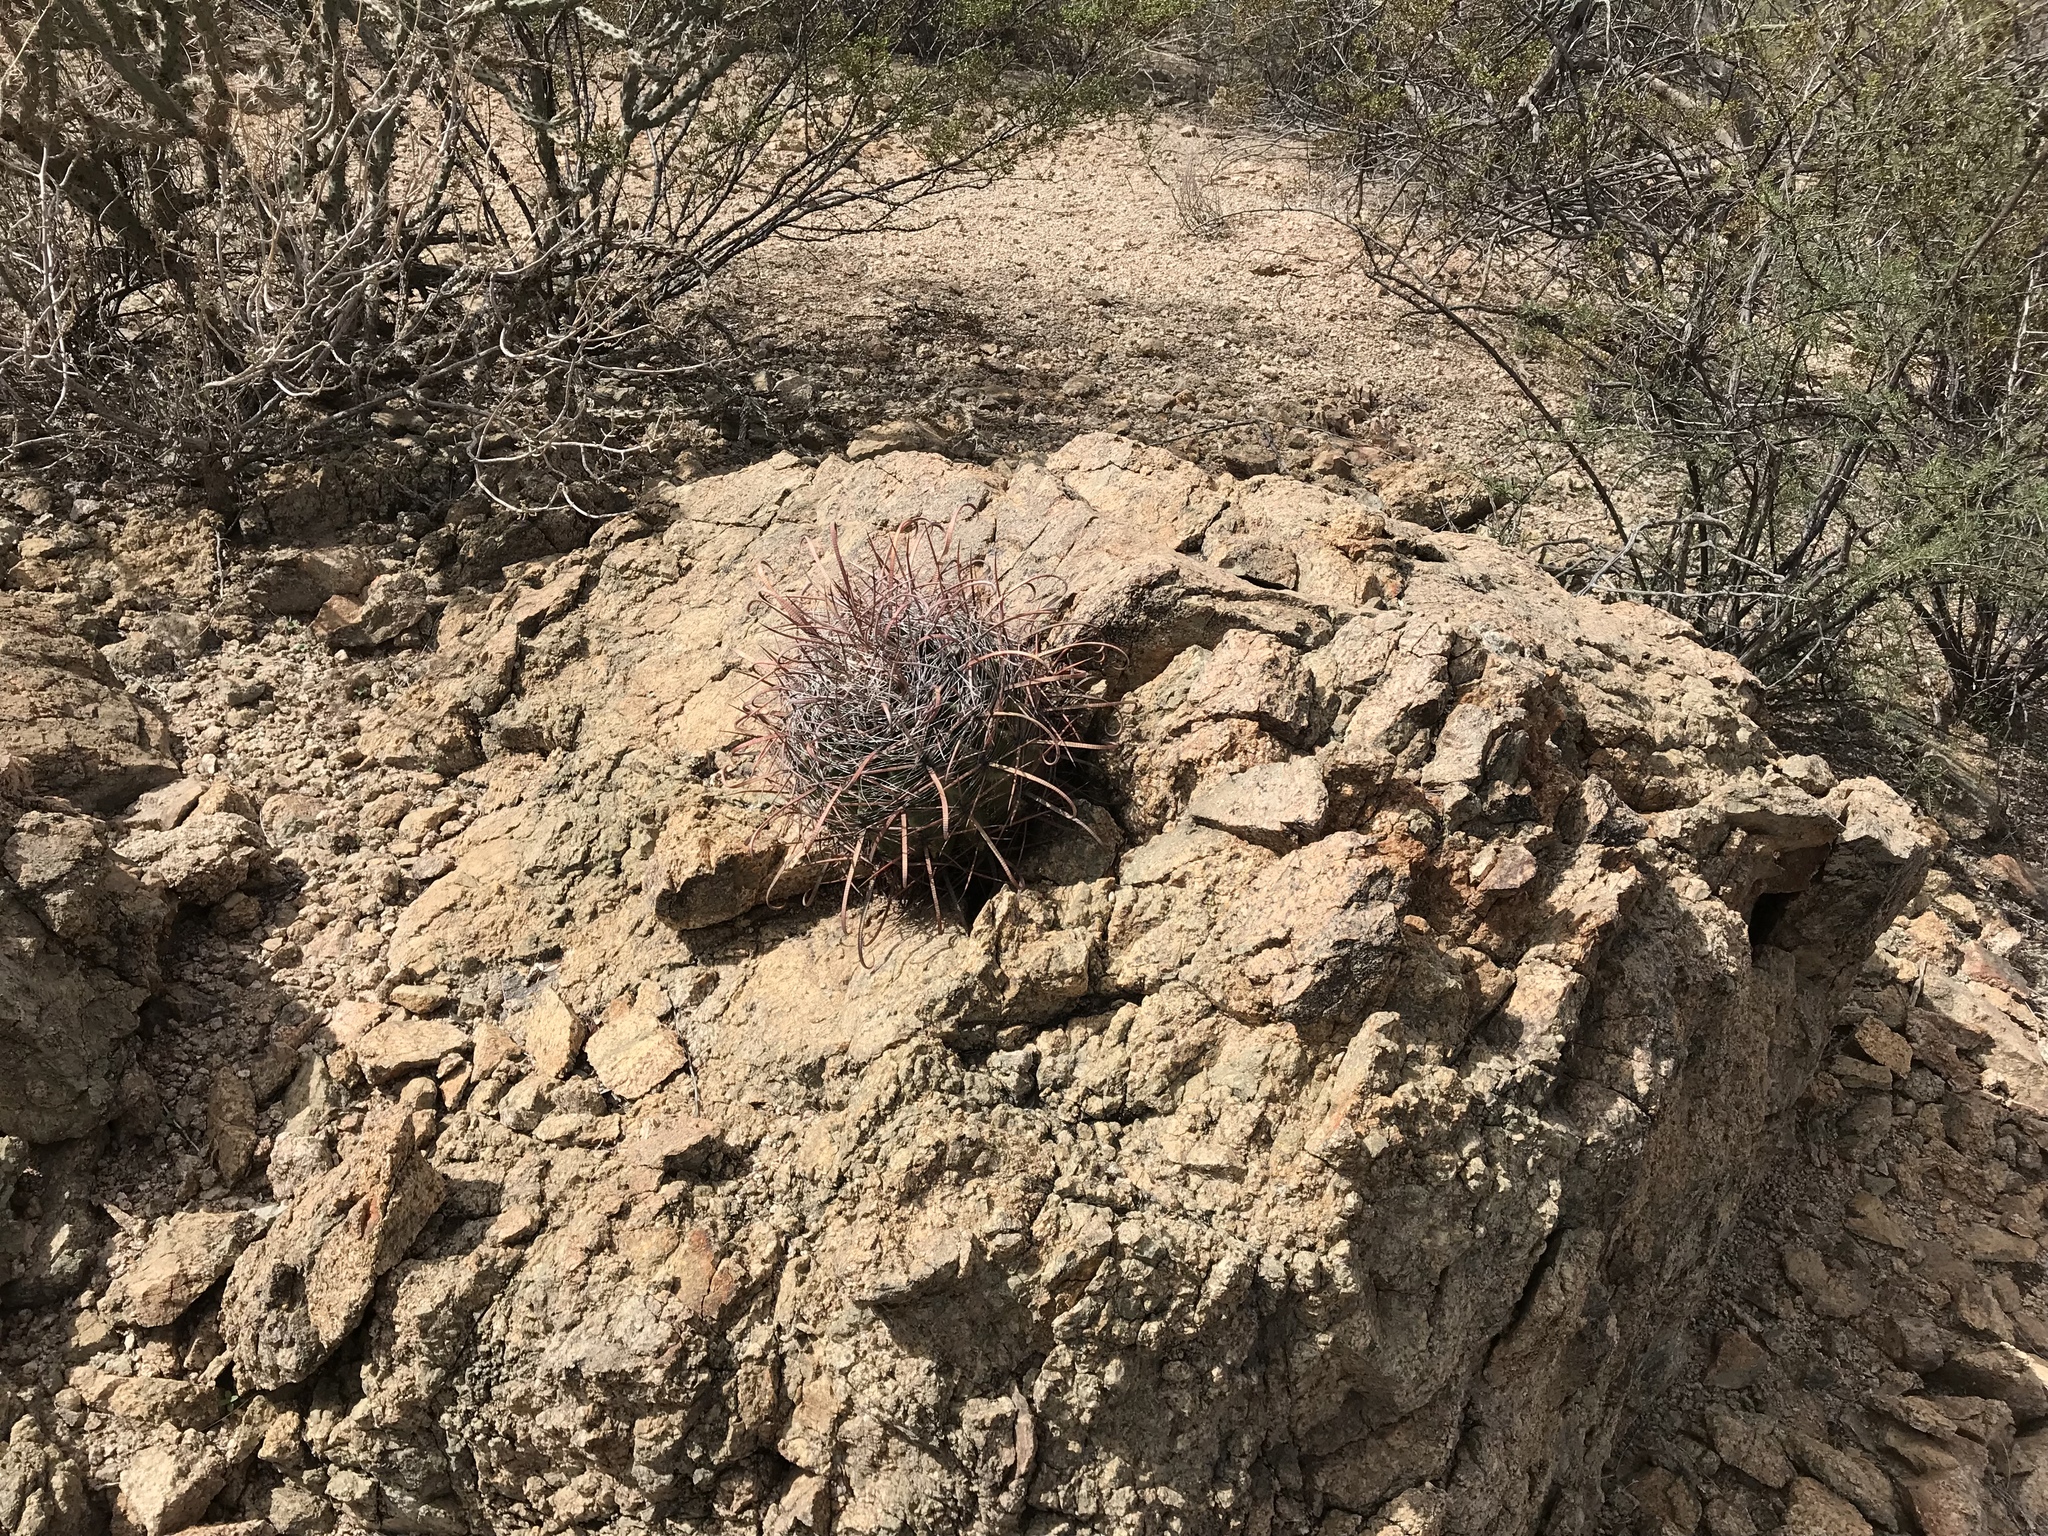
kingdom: Plantae
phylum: Tracheophyta
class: Magnoliopsida
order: Caryophyllales
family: Cactaceae
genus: Ferocactus
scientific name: Ferocactus wislizeni
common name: Candy barrel cactus
